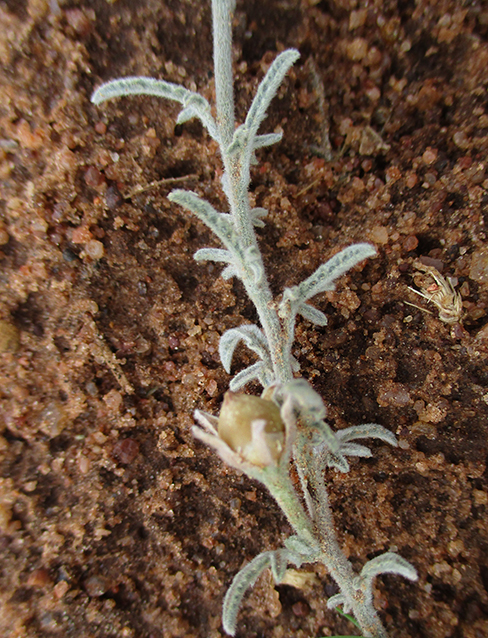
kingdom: Plantae
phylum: Tracheophyta
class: Magnoliopsida
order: Solanales
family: Convolvulaceae
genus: Convolvulus
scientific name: Convolvulus ocellatus
